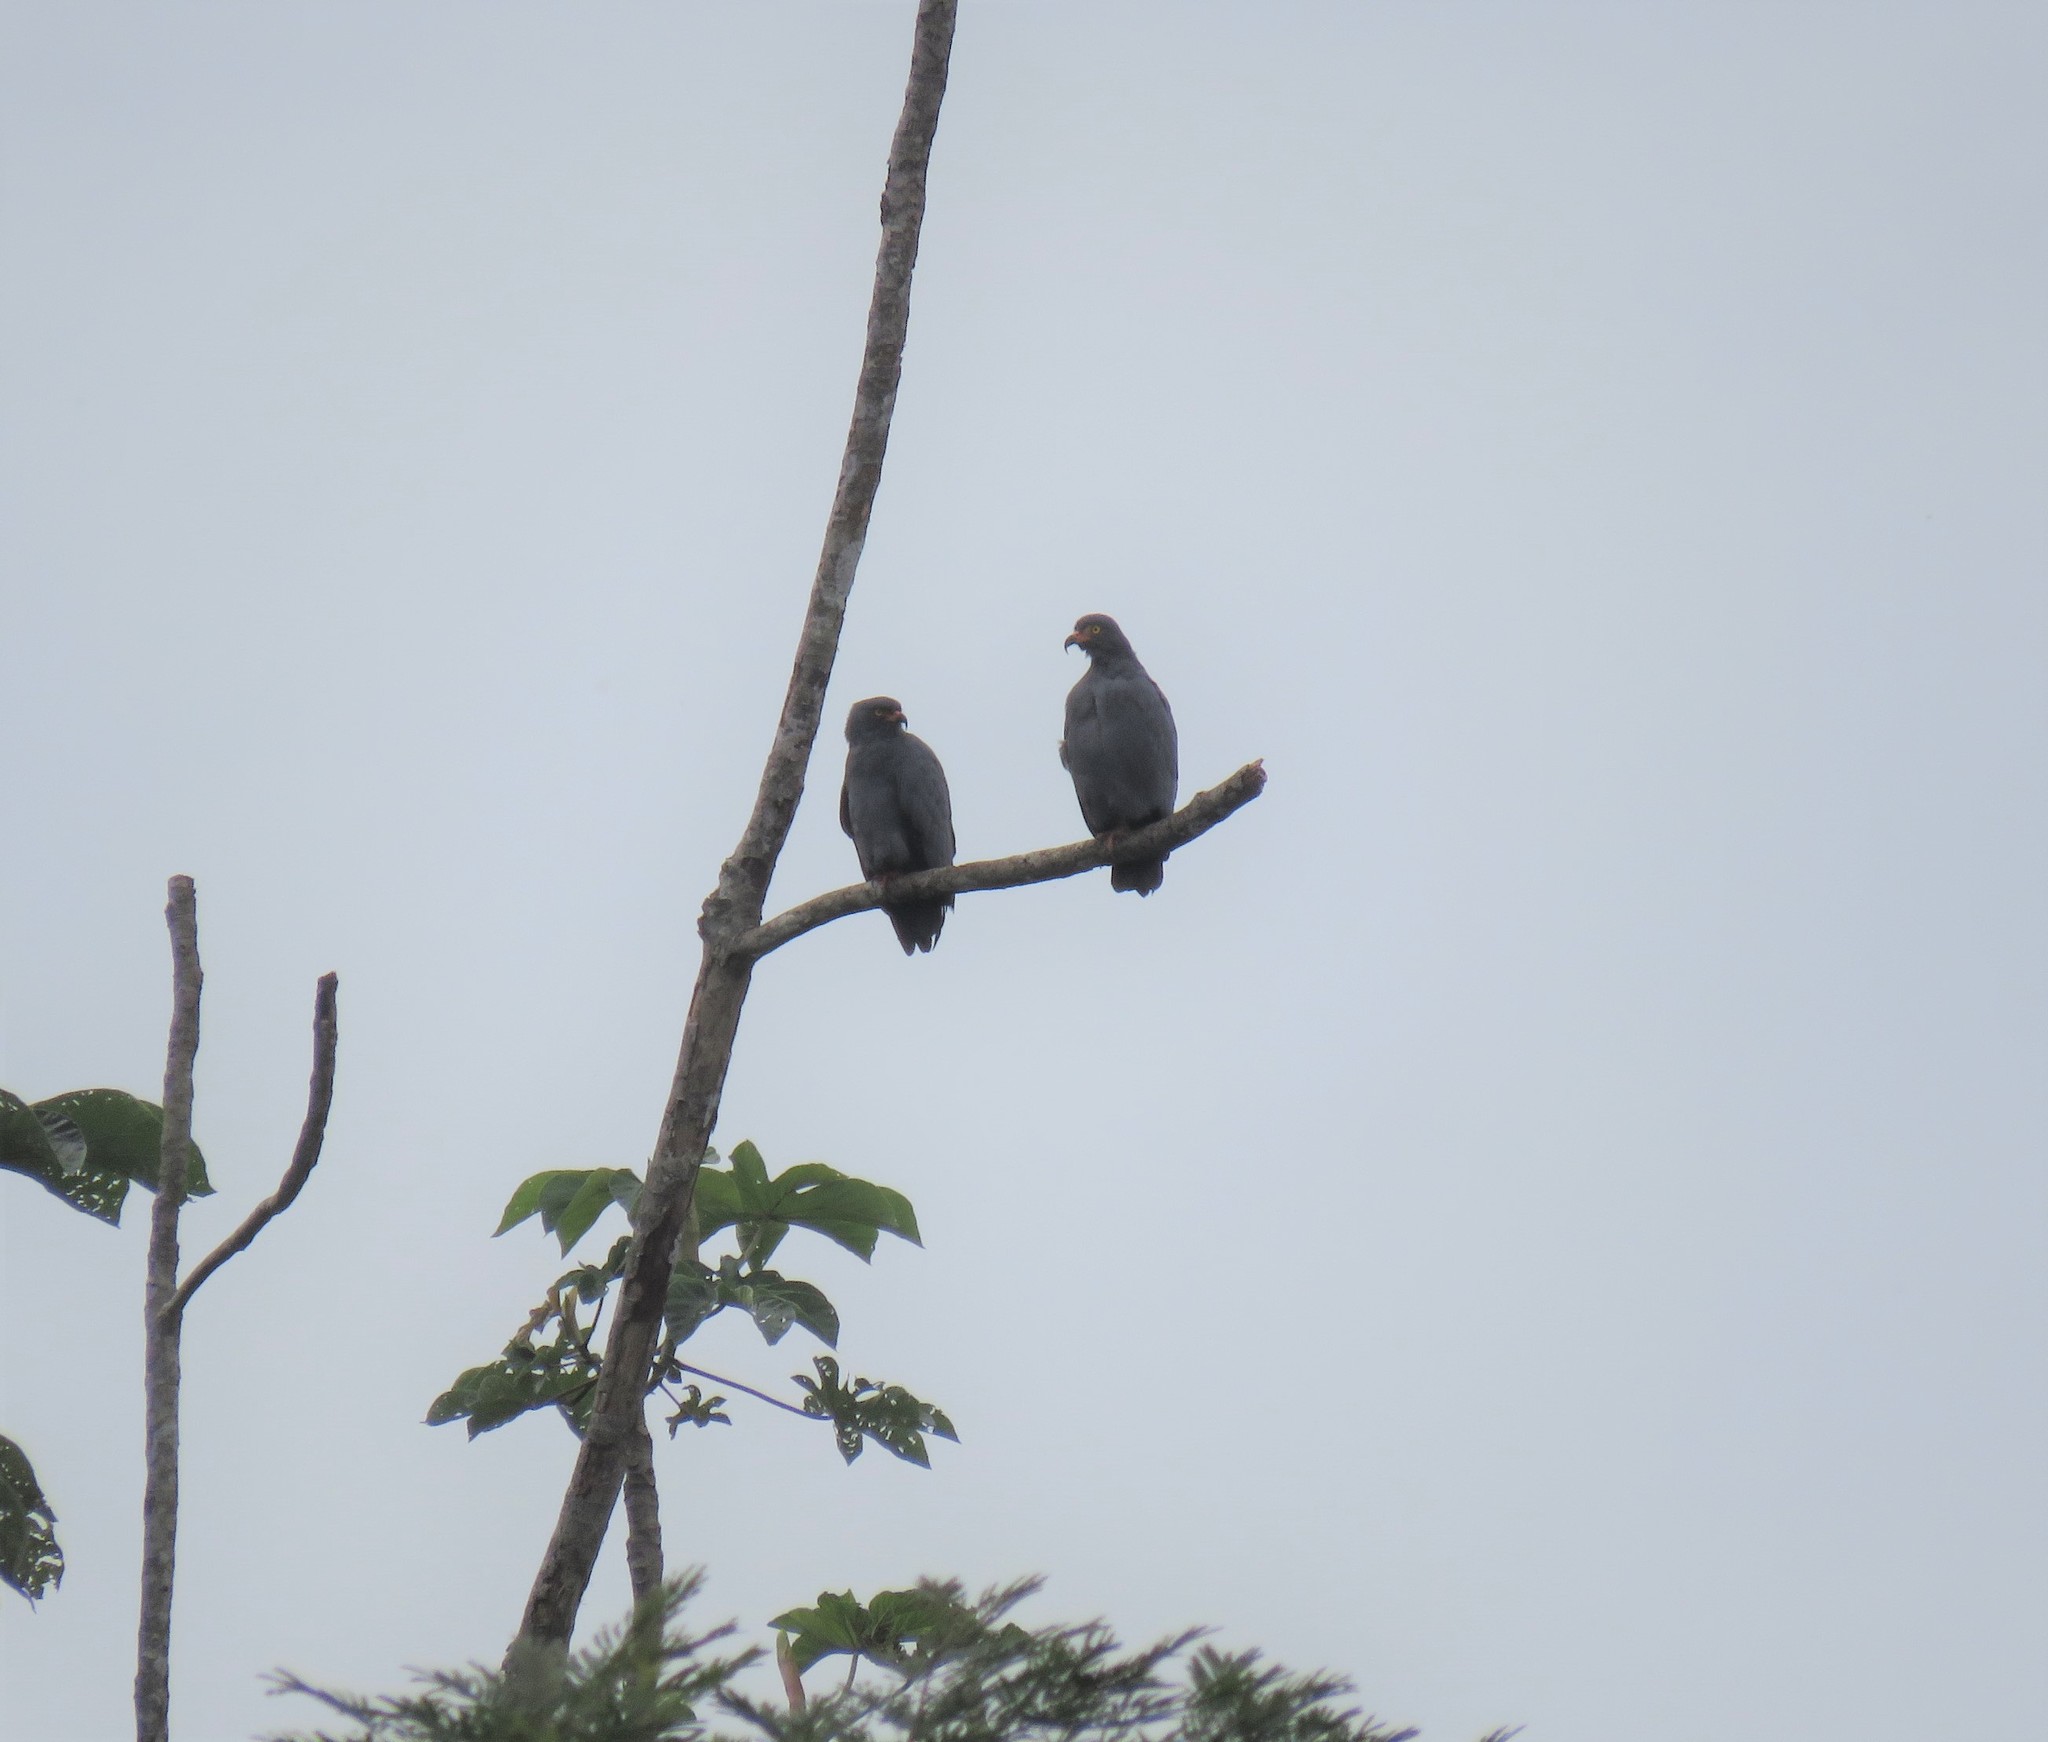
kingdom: Animalia
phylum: Chordata
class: Aves
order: Accipitriformes
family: Accipitridae
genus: Helicolestes
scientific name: Helicolestes hamatus
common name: Slender-billed kite
